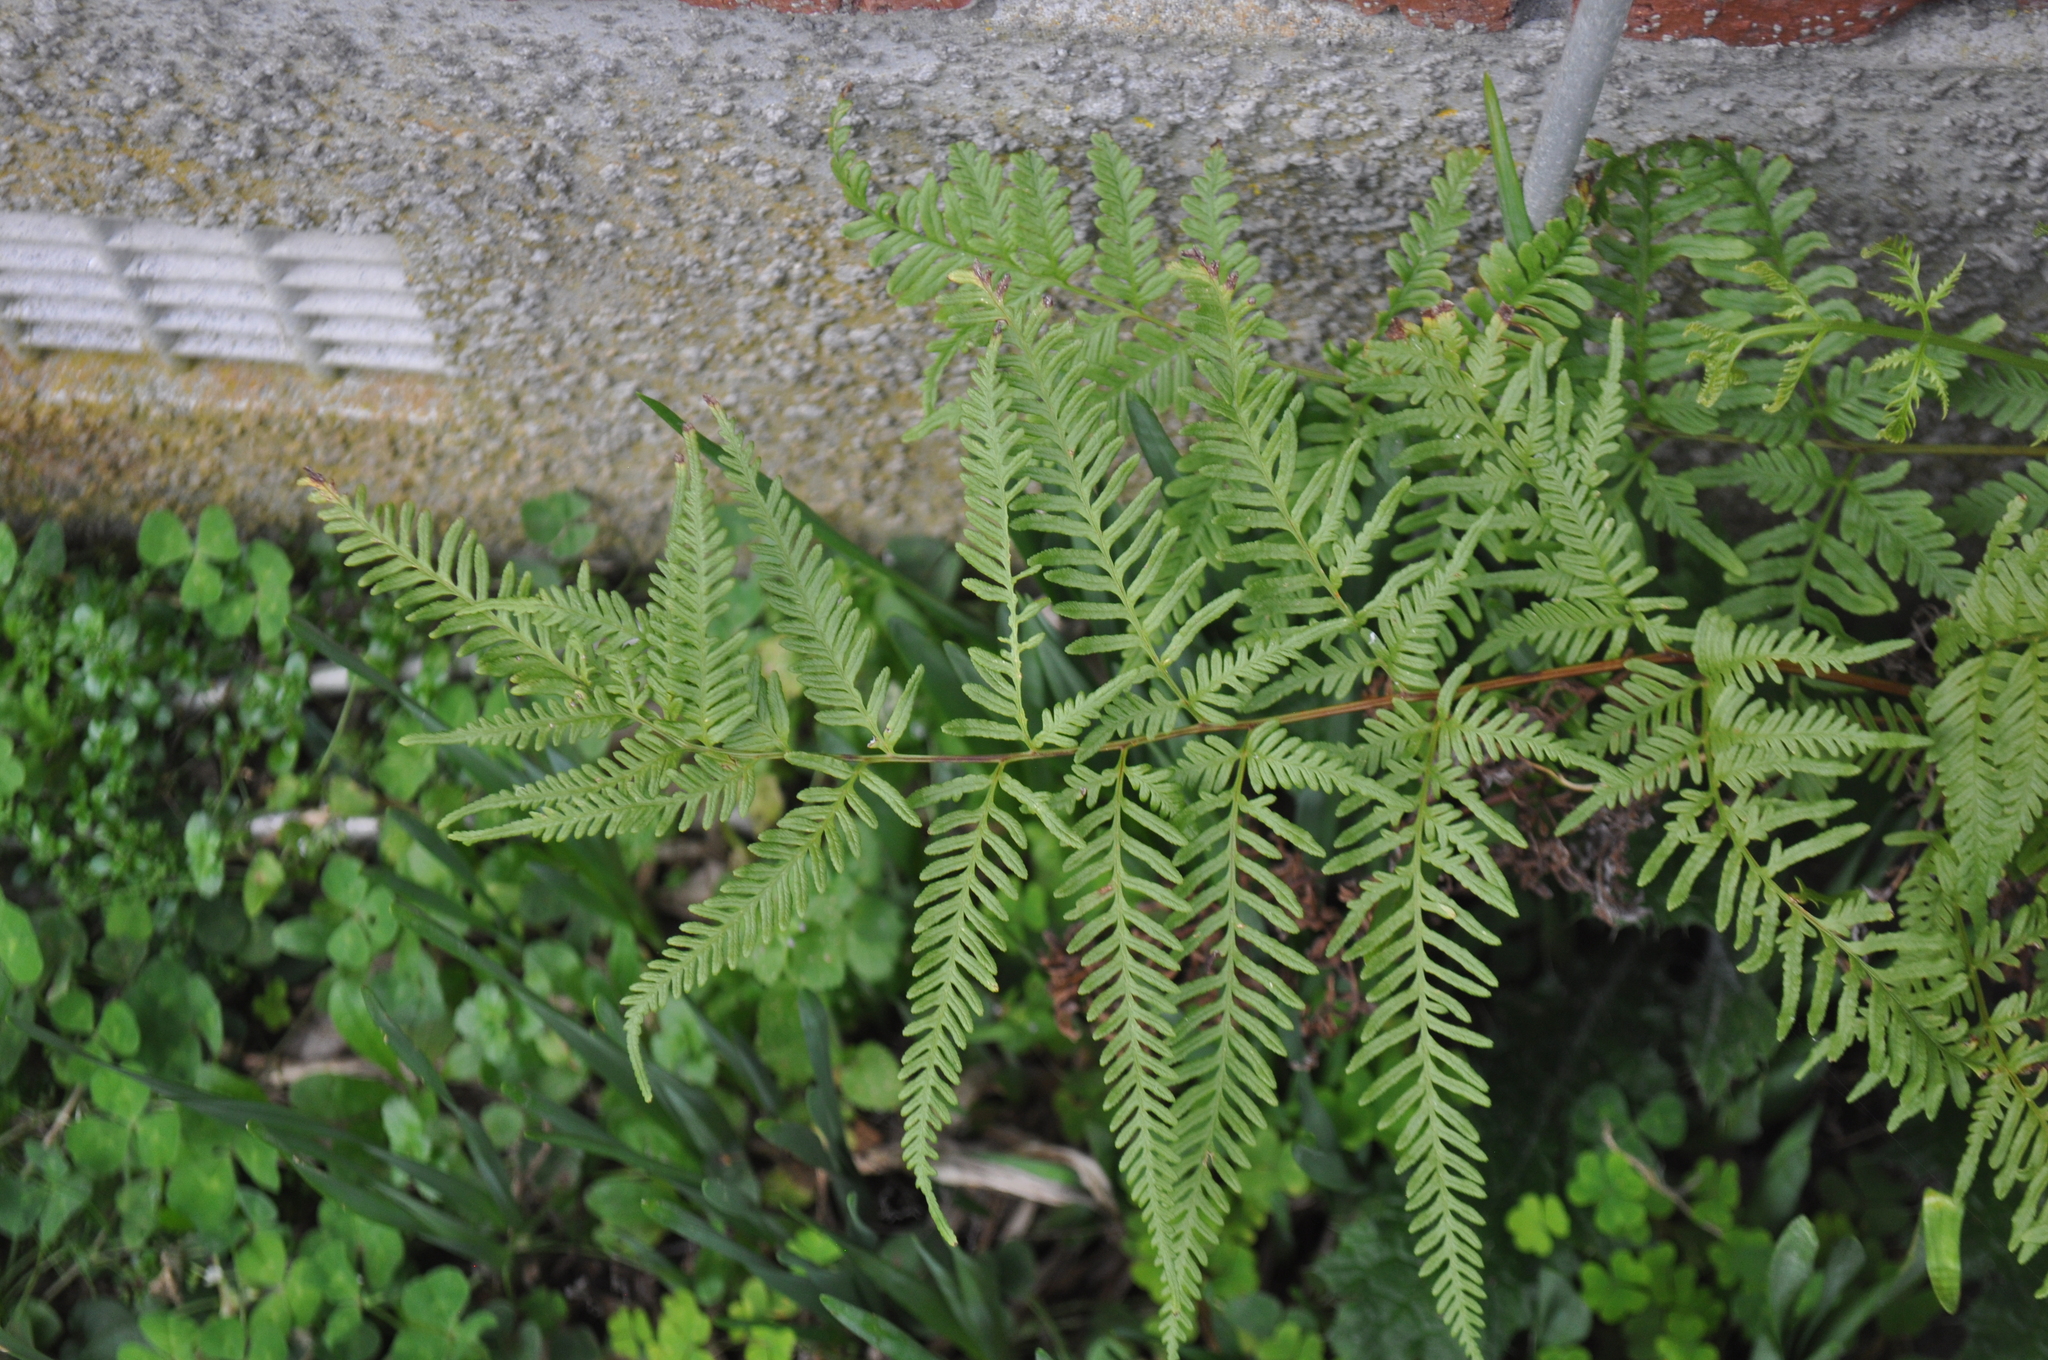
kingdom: Plantae
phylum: Tracheophyta
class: Polypodiopsida
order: Polypodiales
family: Pteridaceae
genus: Pteris
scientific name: Pteris tremula
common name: Australian brake
